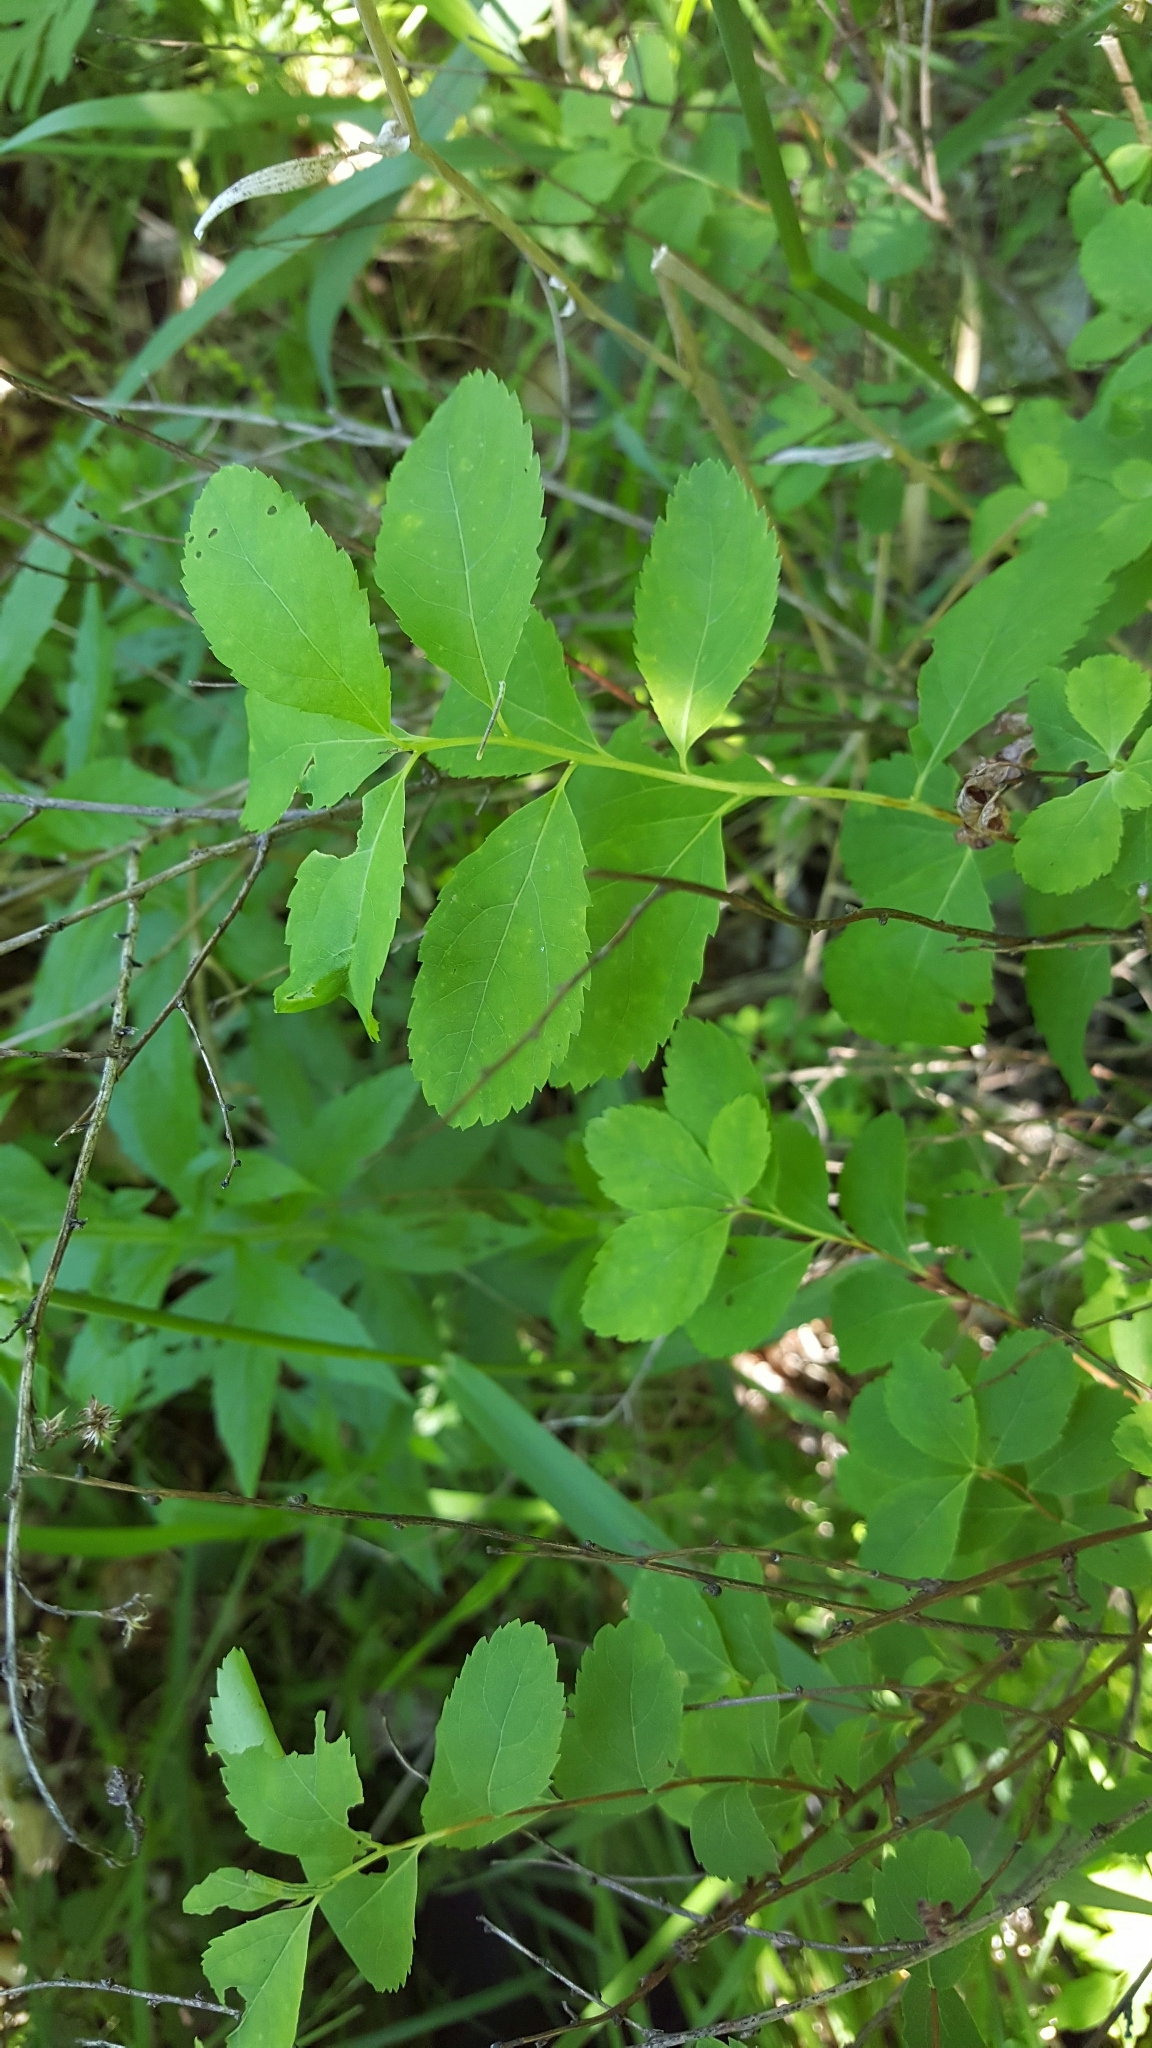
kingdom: Plantae
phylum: Tracheophyta
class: Magnoliopsida
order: Rosales
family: Rosaceae
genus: Spiraea
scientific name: Spiraea alba
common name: Pale bridewort
